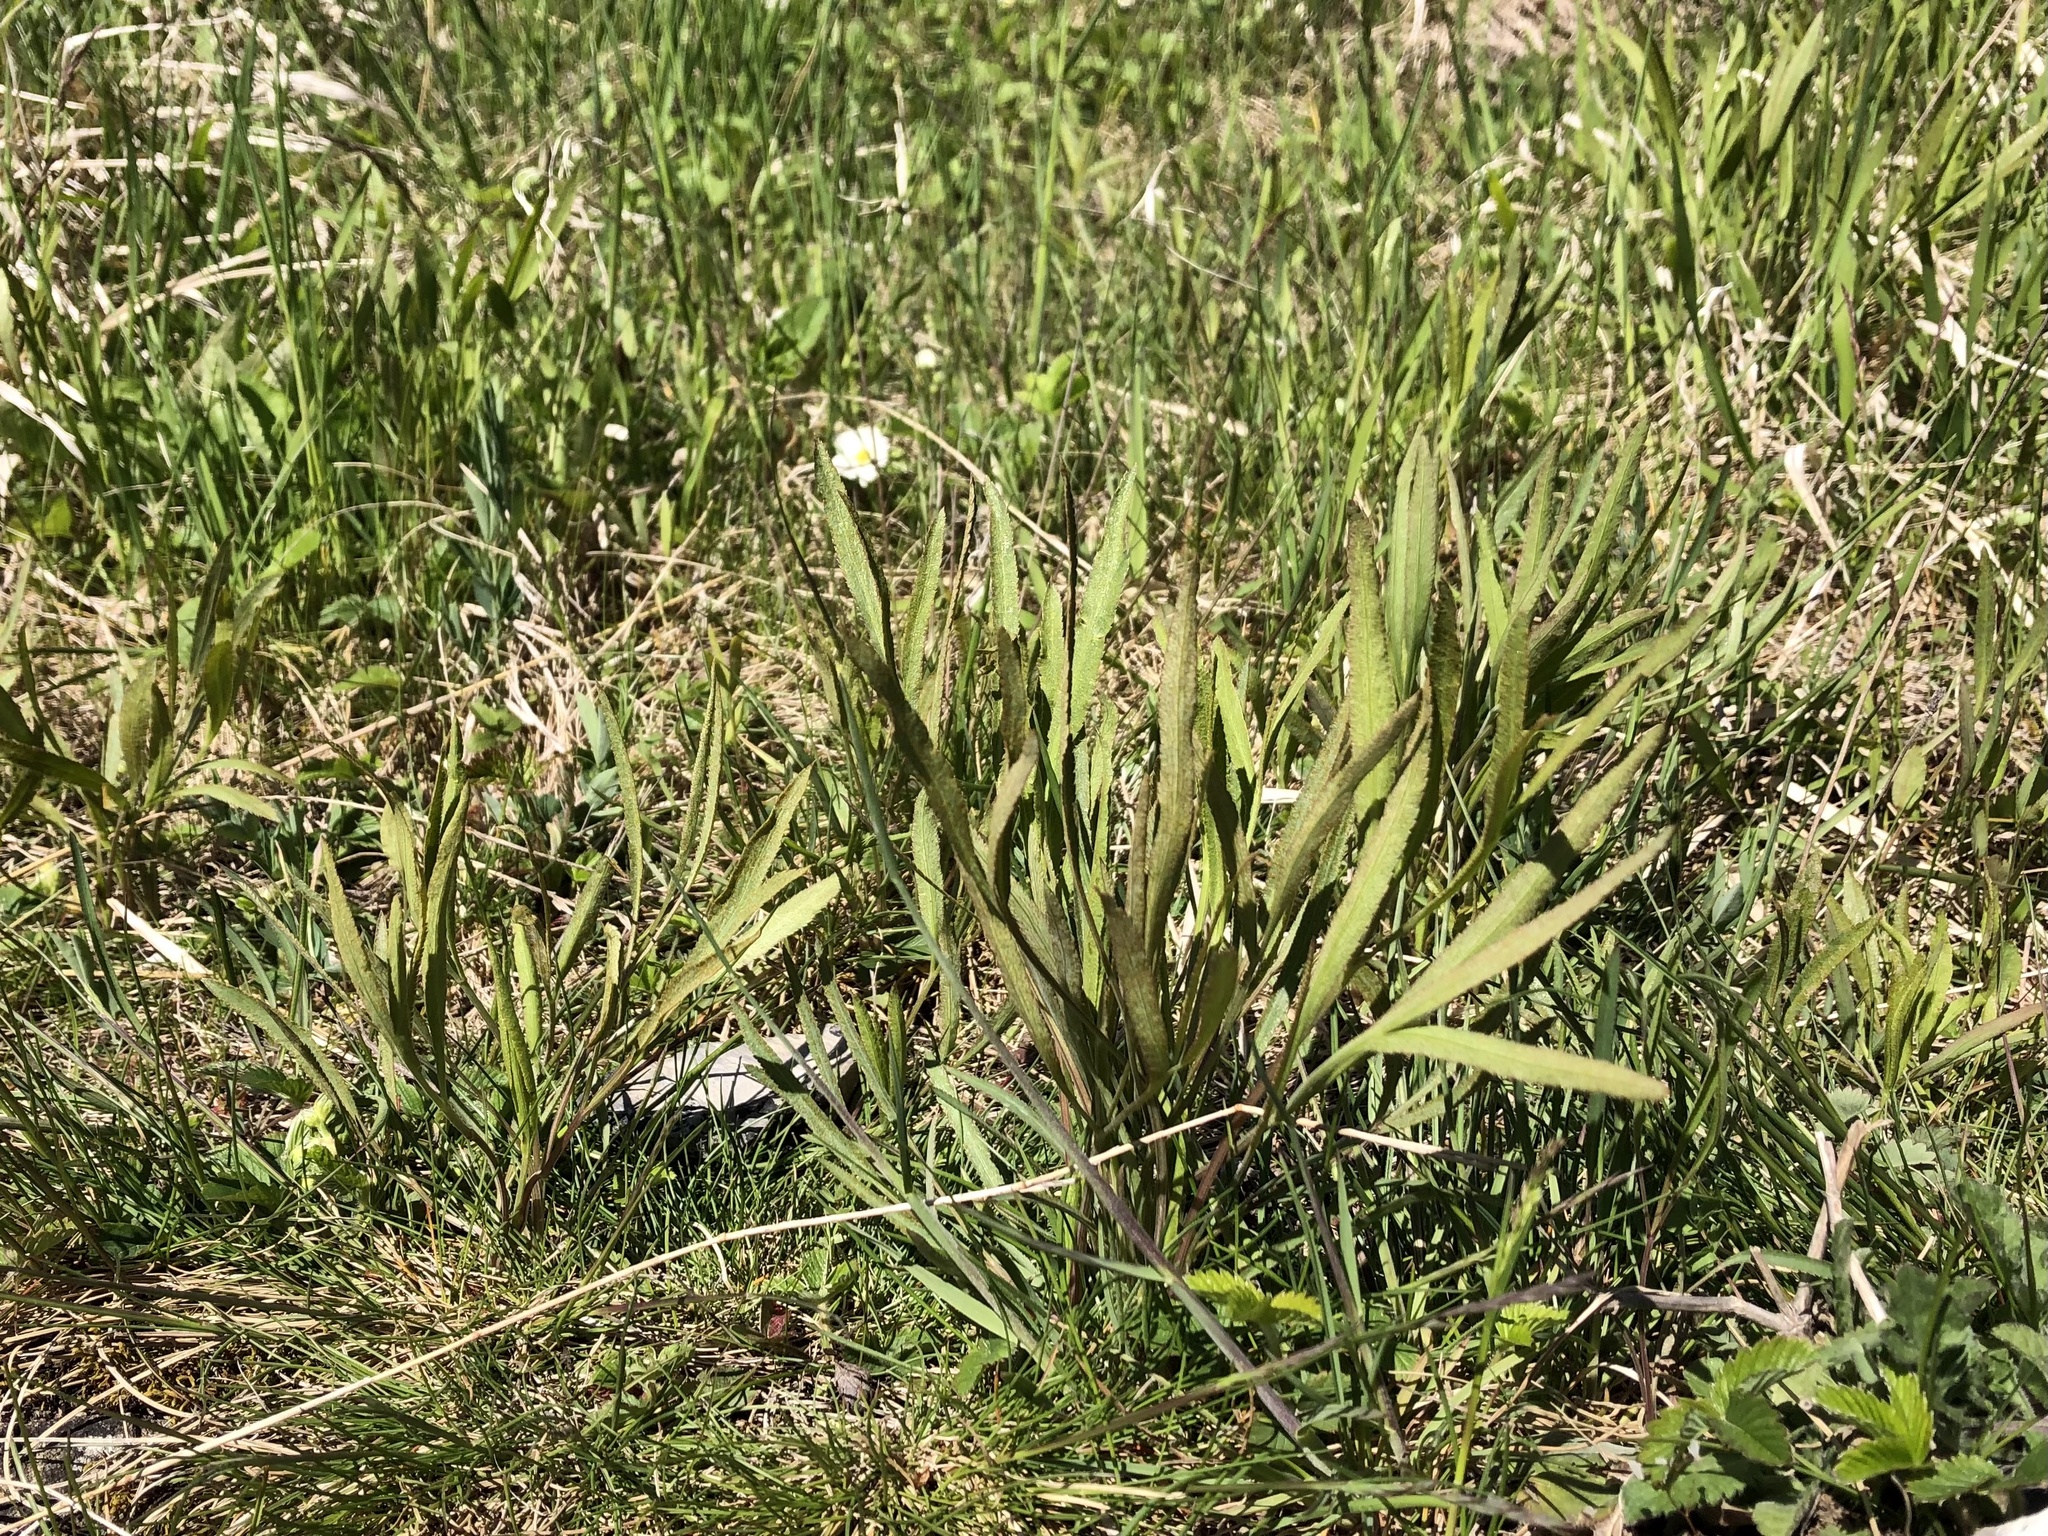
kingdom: Plantae
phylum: Tracheophyta
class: Magnoliopsida
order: Apiales
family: Apiaceae
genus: Falcaria
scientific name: Falcaria vulgaris
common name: Longleaf
